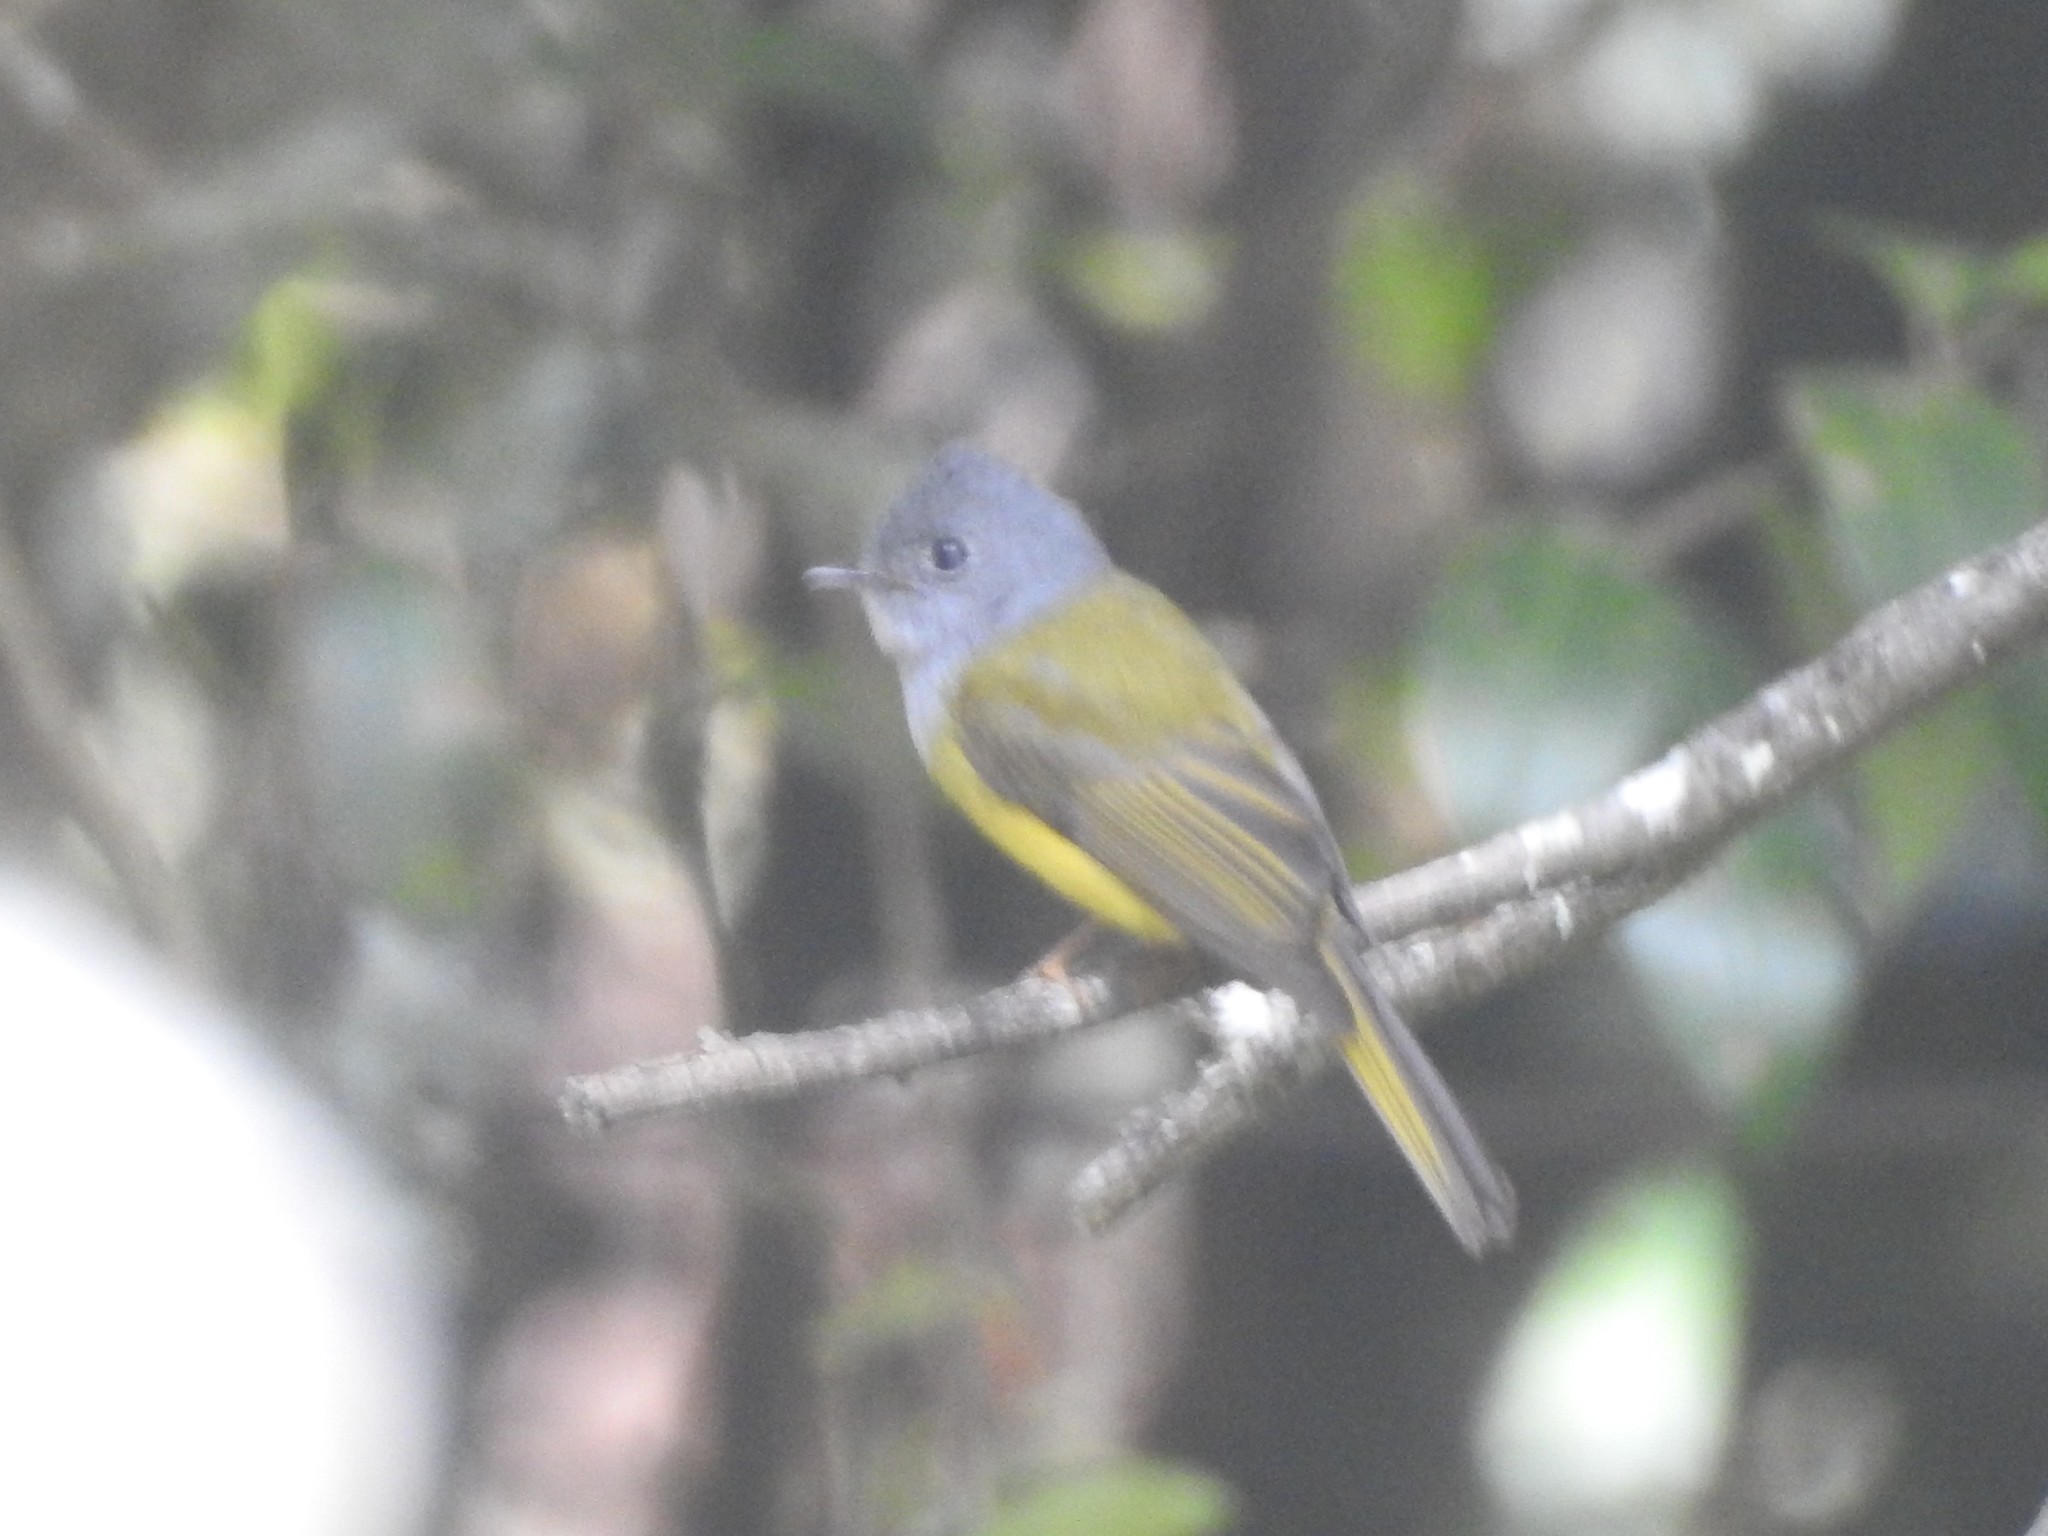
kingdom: Animalia
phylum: Chordata
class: Aves
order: Passeriformes
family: Stenostiridae
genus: Culicicapa
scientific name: Culicicapa ceylonensis
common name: Grey-headed canary-flycatcher
